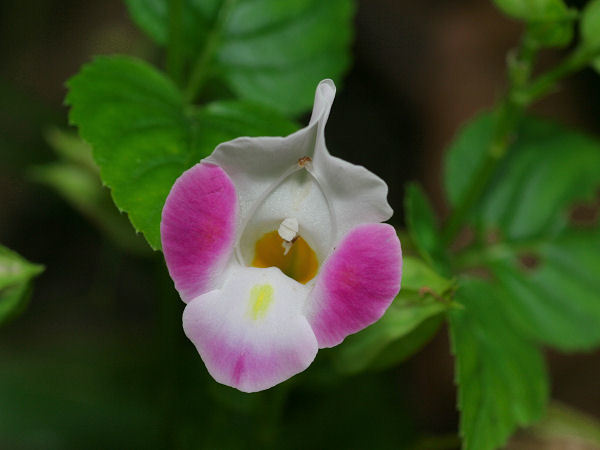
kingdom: Plantae
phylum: Tracheophyta
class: Magnoliopsida
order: Lamiales
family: Linderniaceae
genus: Torenia
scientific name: Torenia fournieri
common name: Bluewings
